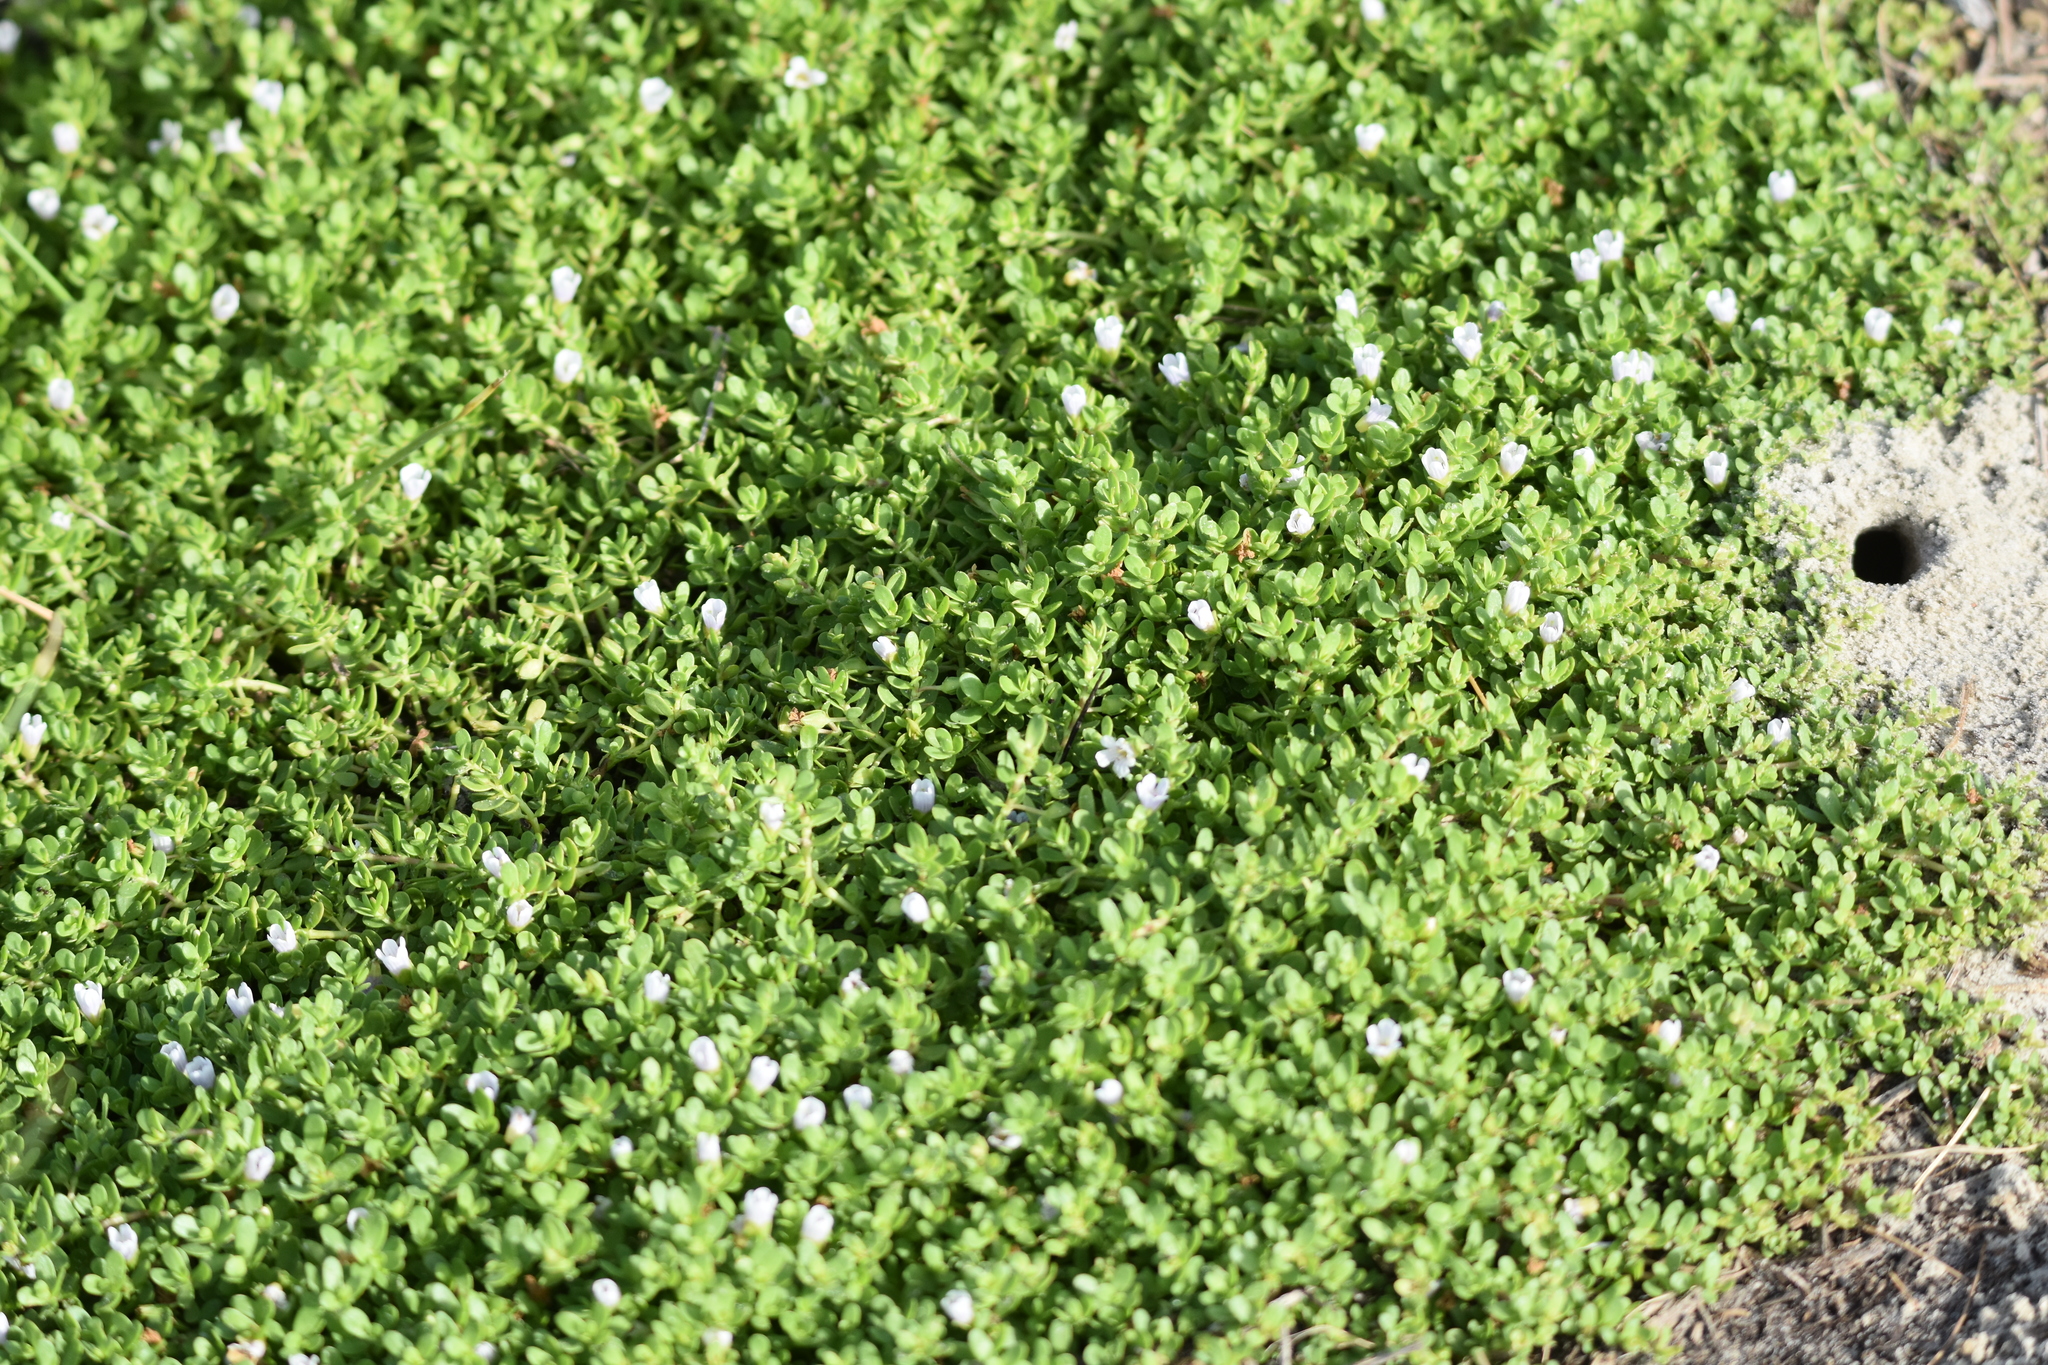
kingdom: Plantae
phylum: Tracheophyta
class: Magnoliopsida
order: Lamiales
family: Plantaginaceae
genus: Bacopa
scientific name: Bacopa monnieri
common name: Indian-pennywort
